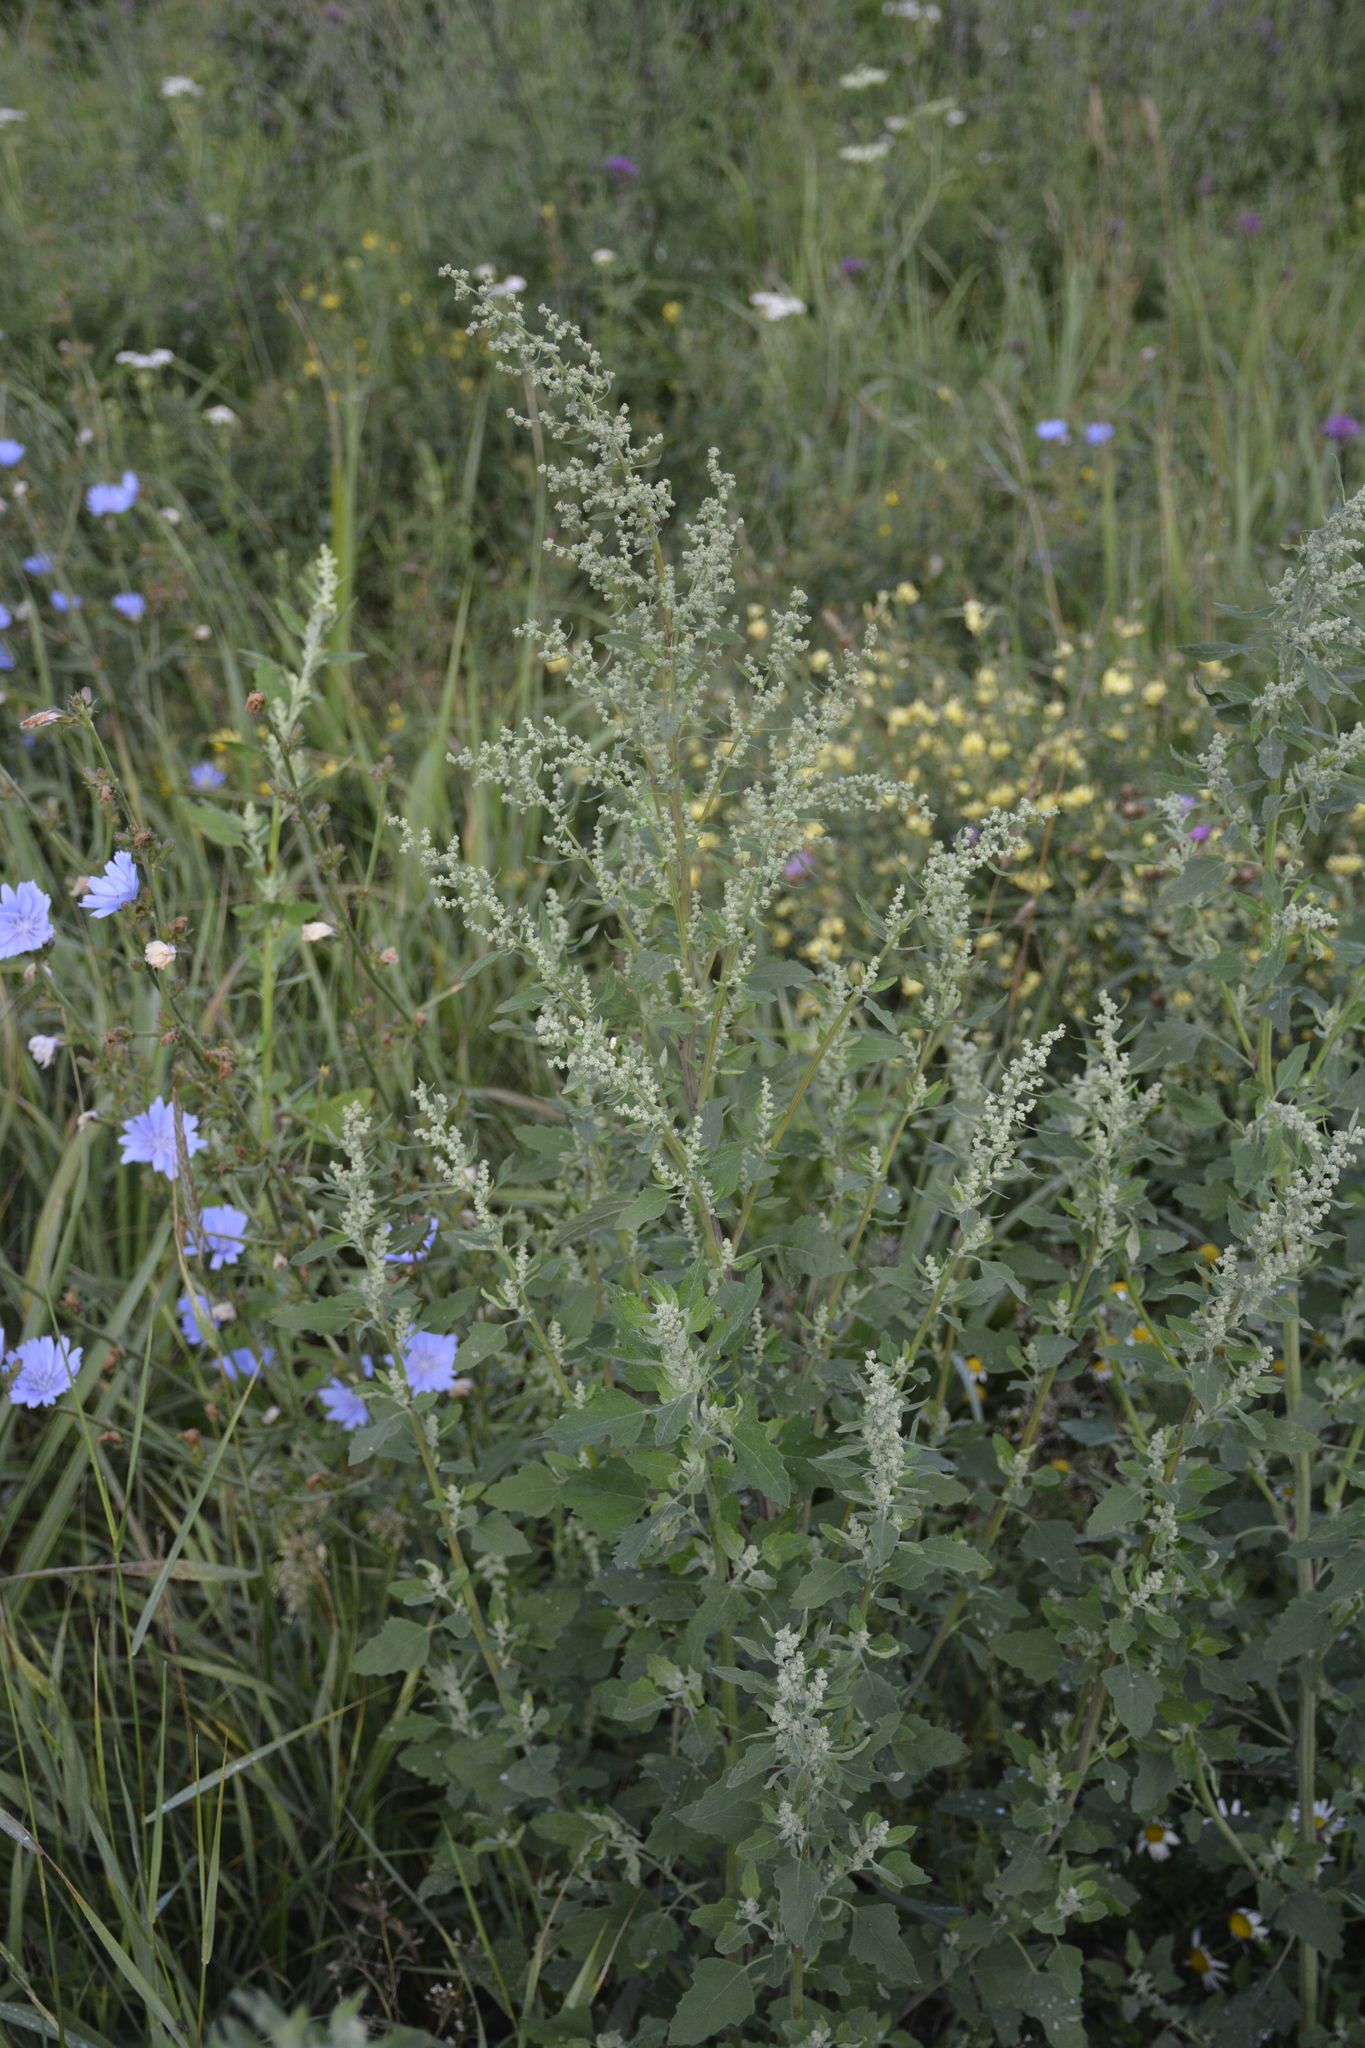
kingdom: Plantae
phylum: Tracheophyta
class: Magnoliopsida
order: Caryophyllales
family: Amaranthaceae
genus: Chenopodium
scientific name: Chenopodium album
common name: Fat-hen
